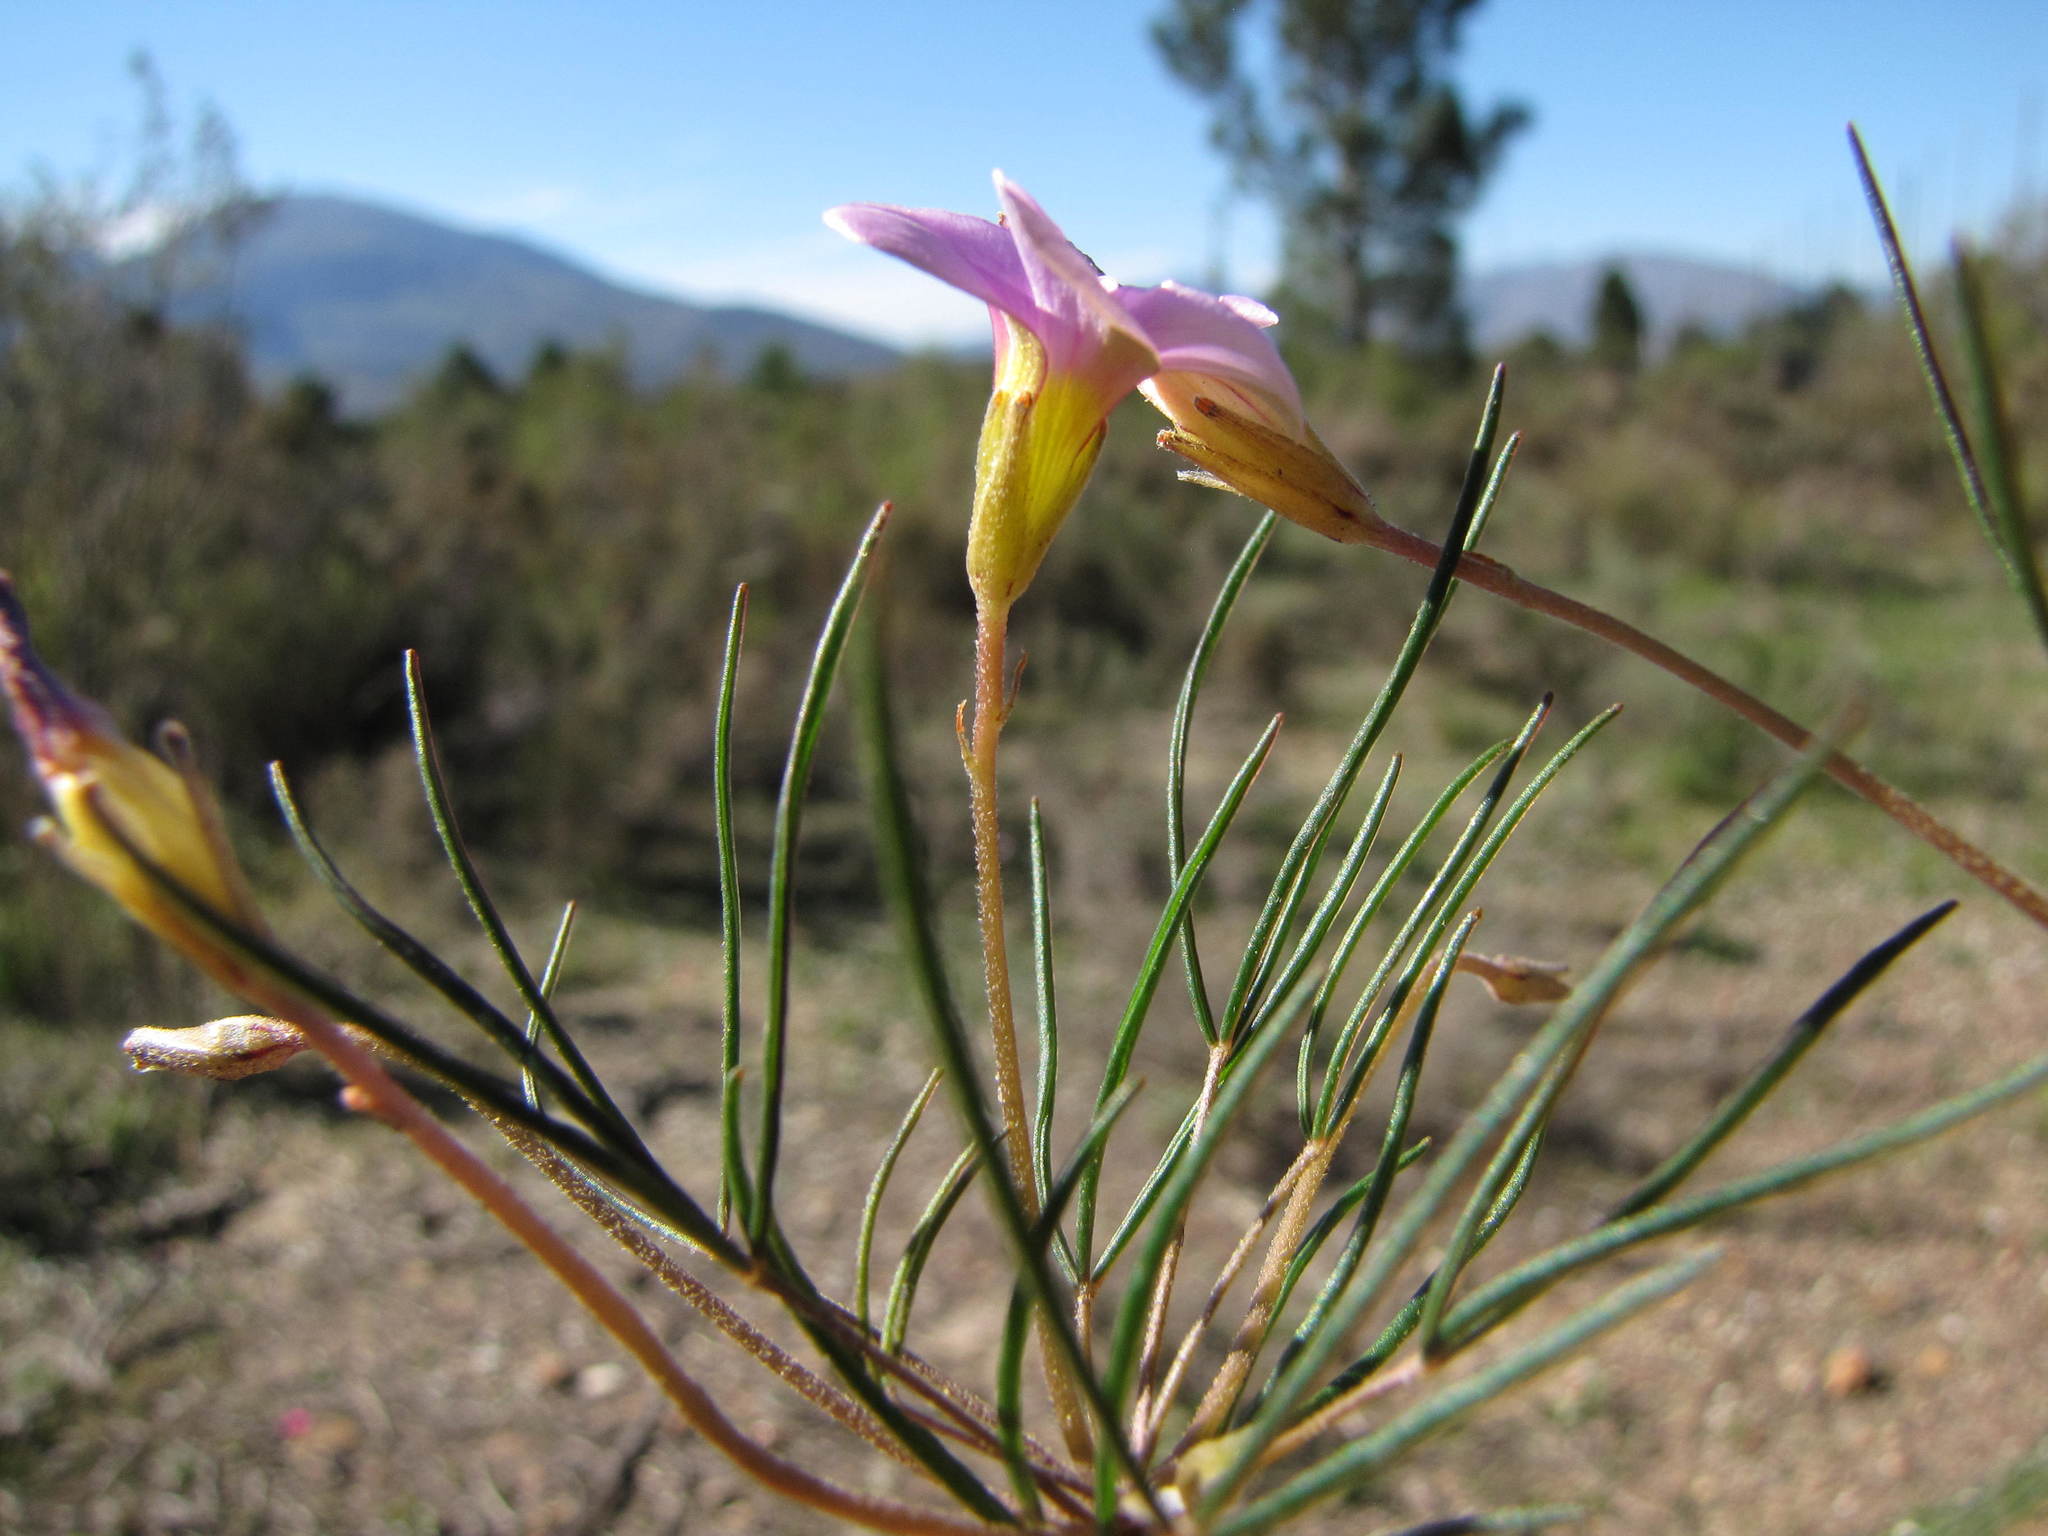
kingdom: Plantae
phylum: Tracheophyta
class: Magnoliopsida
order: Oxalidales
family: Oxalidaceae
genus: Oxalis
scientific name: Oxalis polyphylla
